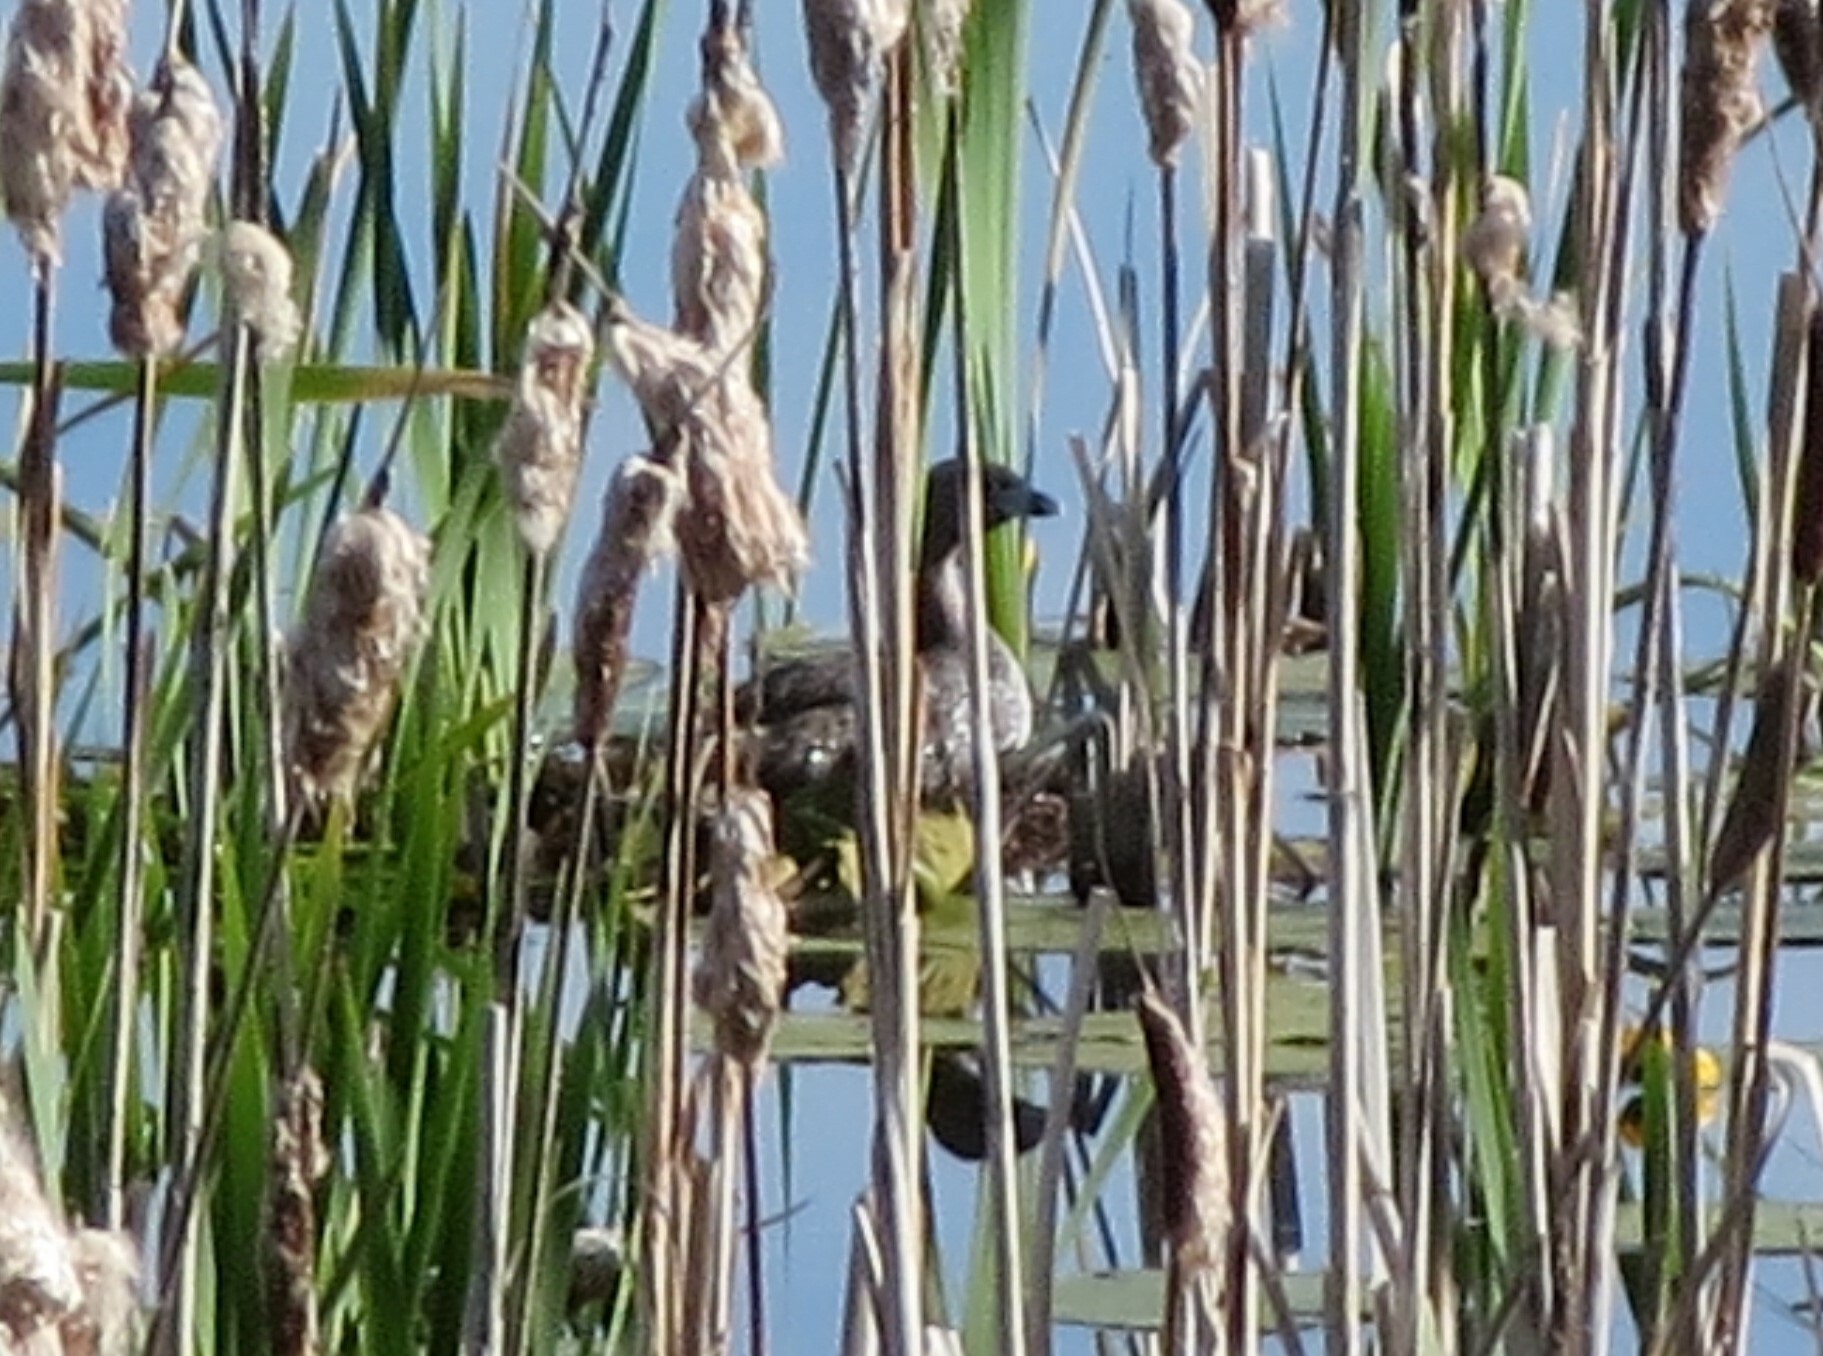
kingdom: Animalia
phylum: Chordata
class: Aves
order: Podicipediformes
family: Podicipedidae
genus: Podilymbus
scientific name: Podilymbus podiceps
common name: Pied-billed grebe
